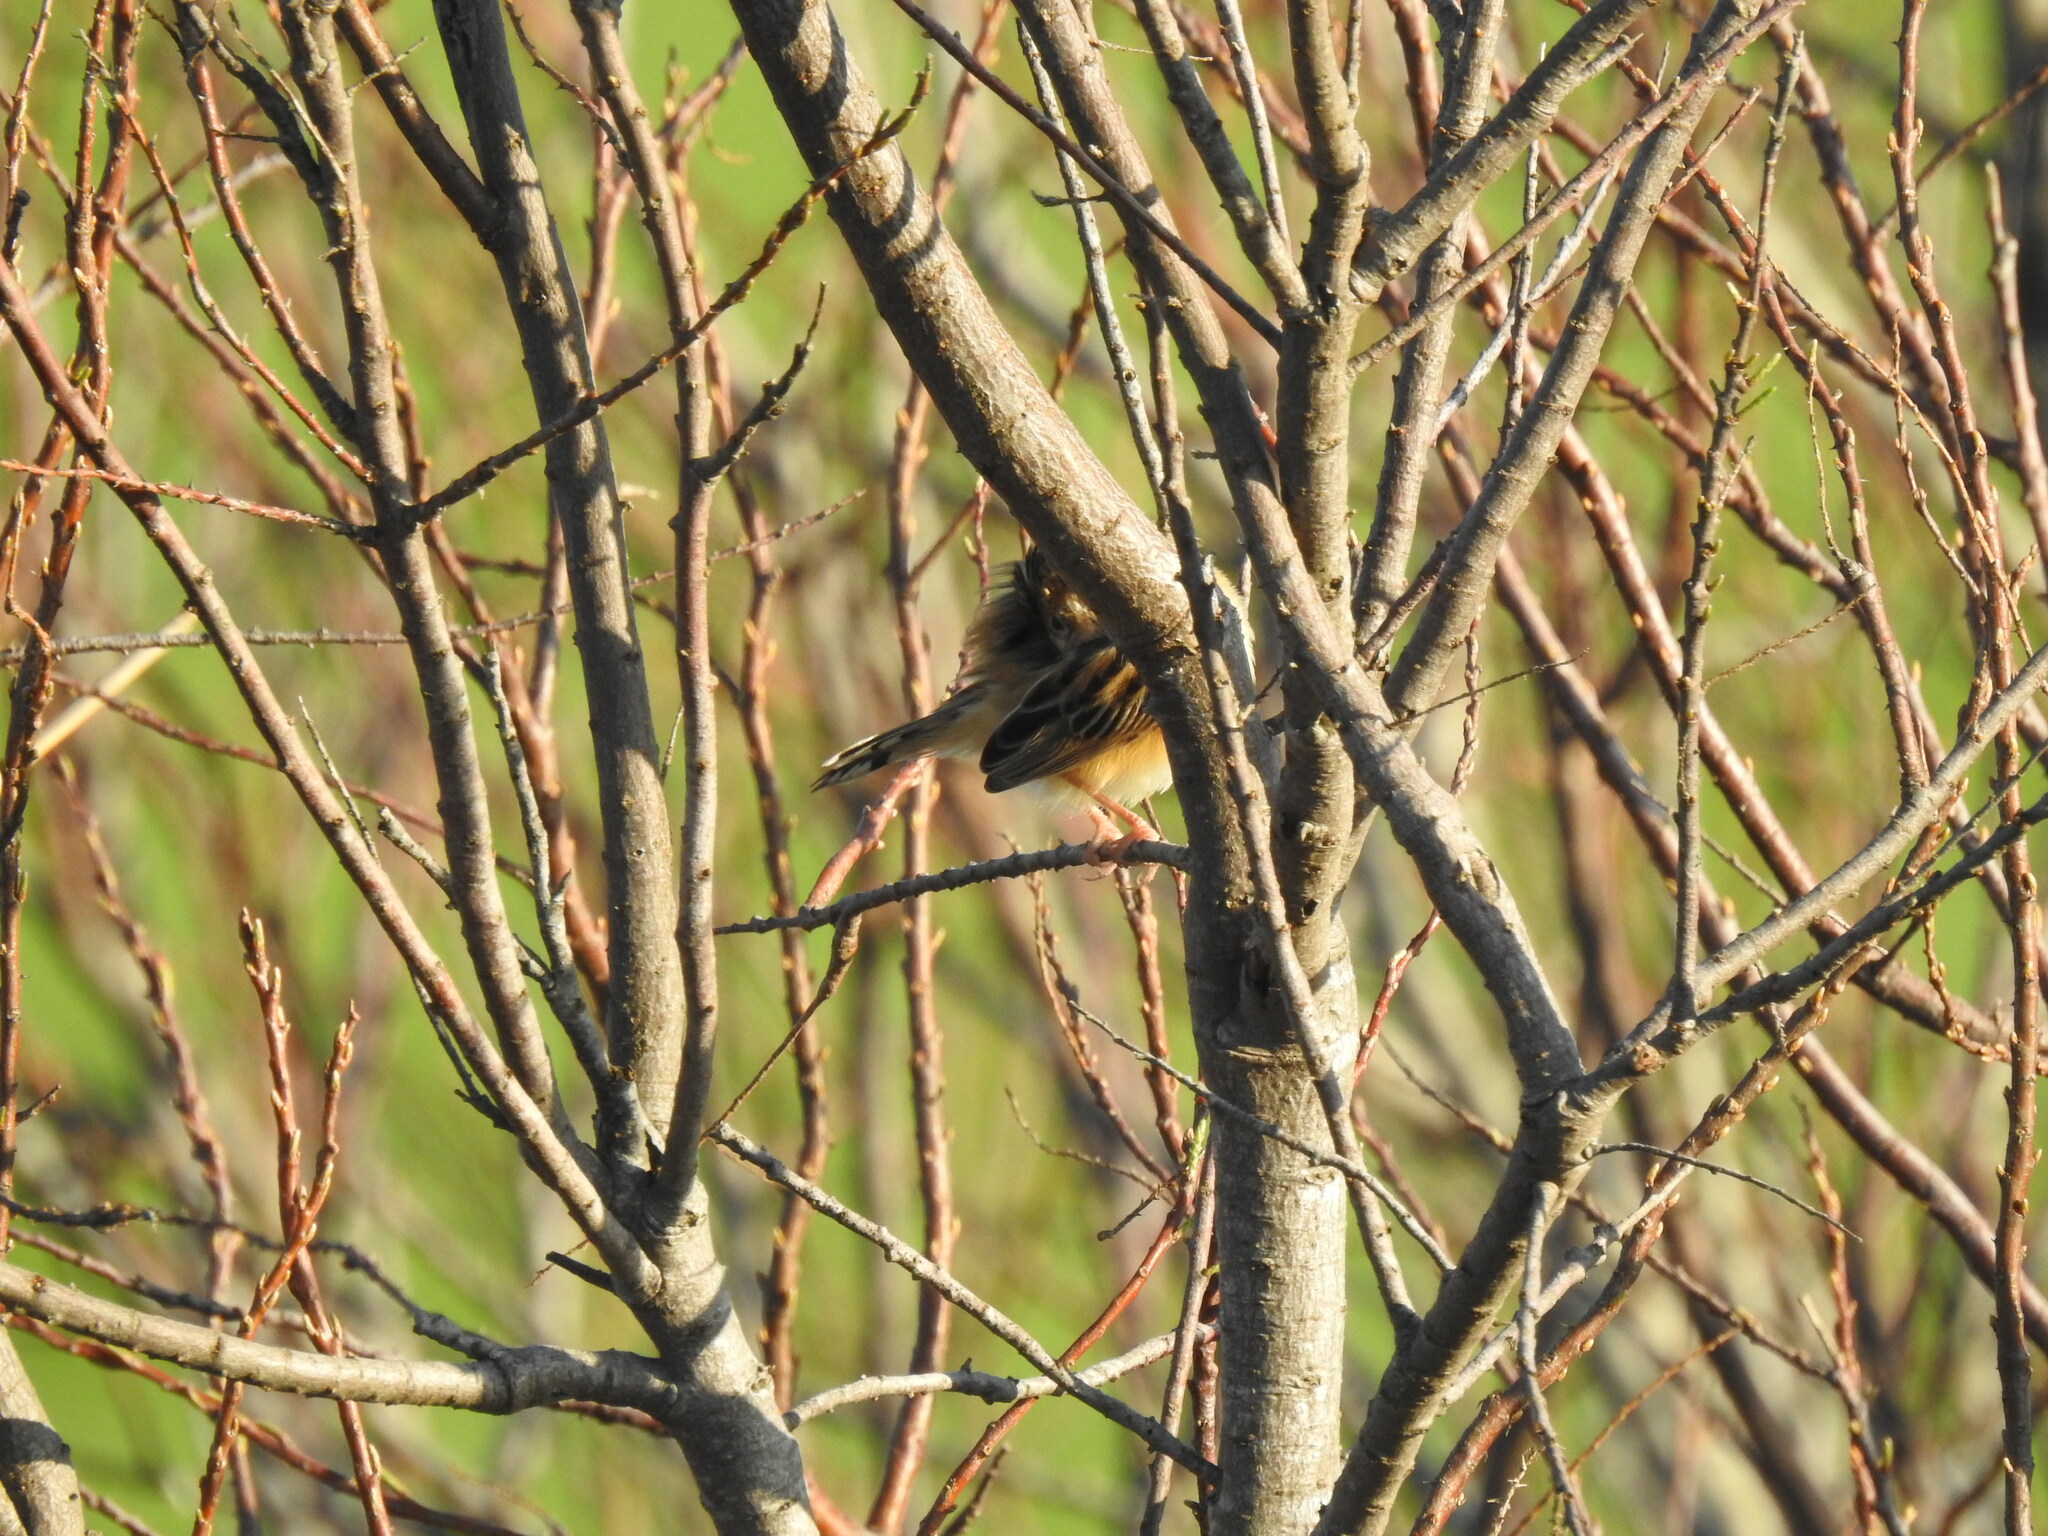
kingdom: Animalia
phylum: Chordata
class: Aves
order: Passeriformes
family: Cisticolidae
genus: Cisticola
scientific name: Cisticola juncidis
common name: Zitting cisticola
